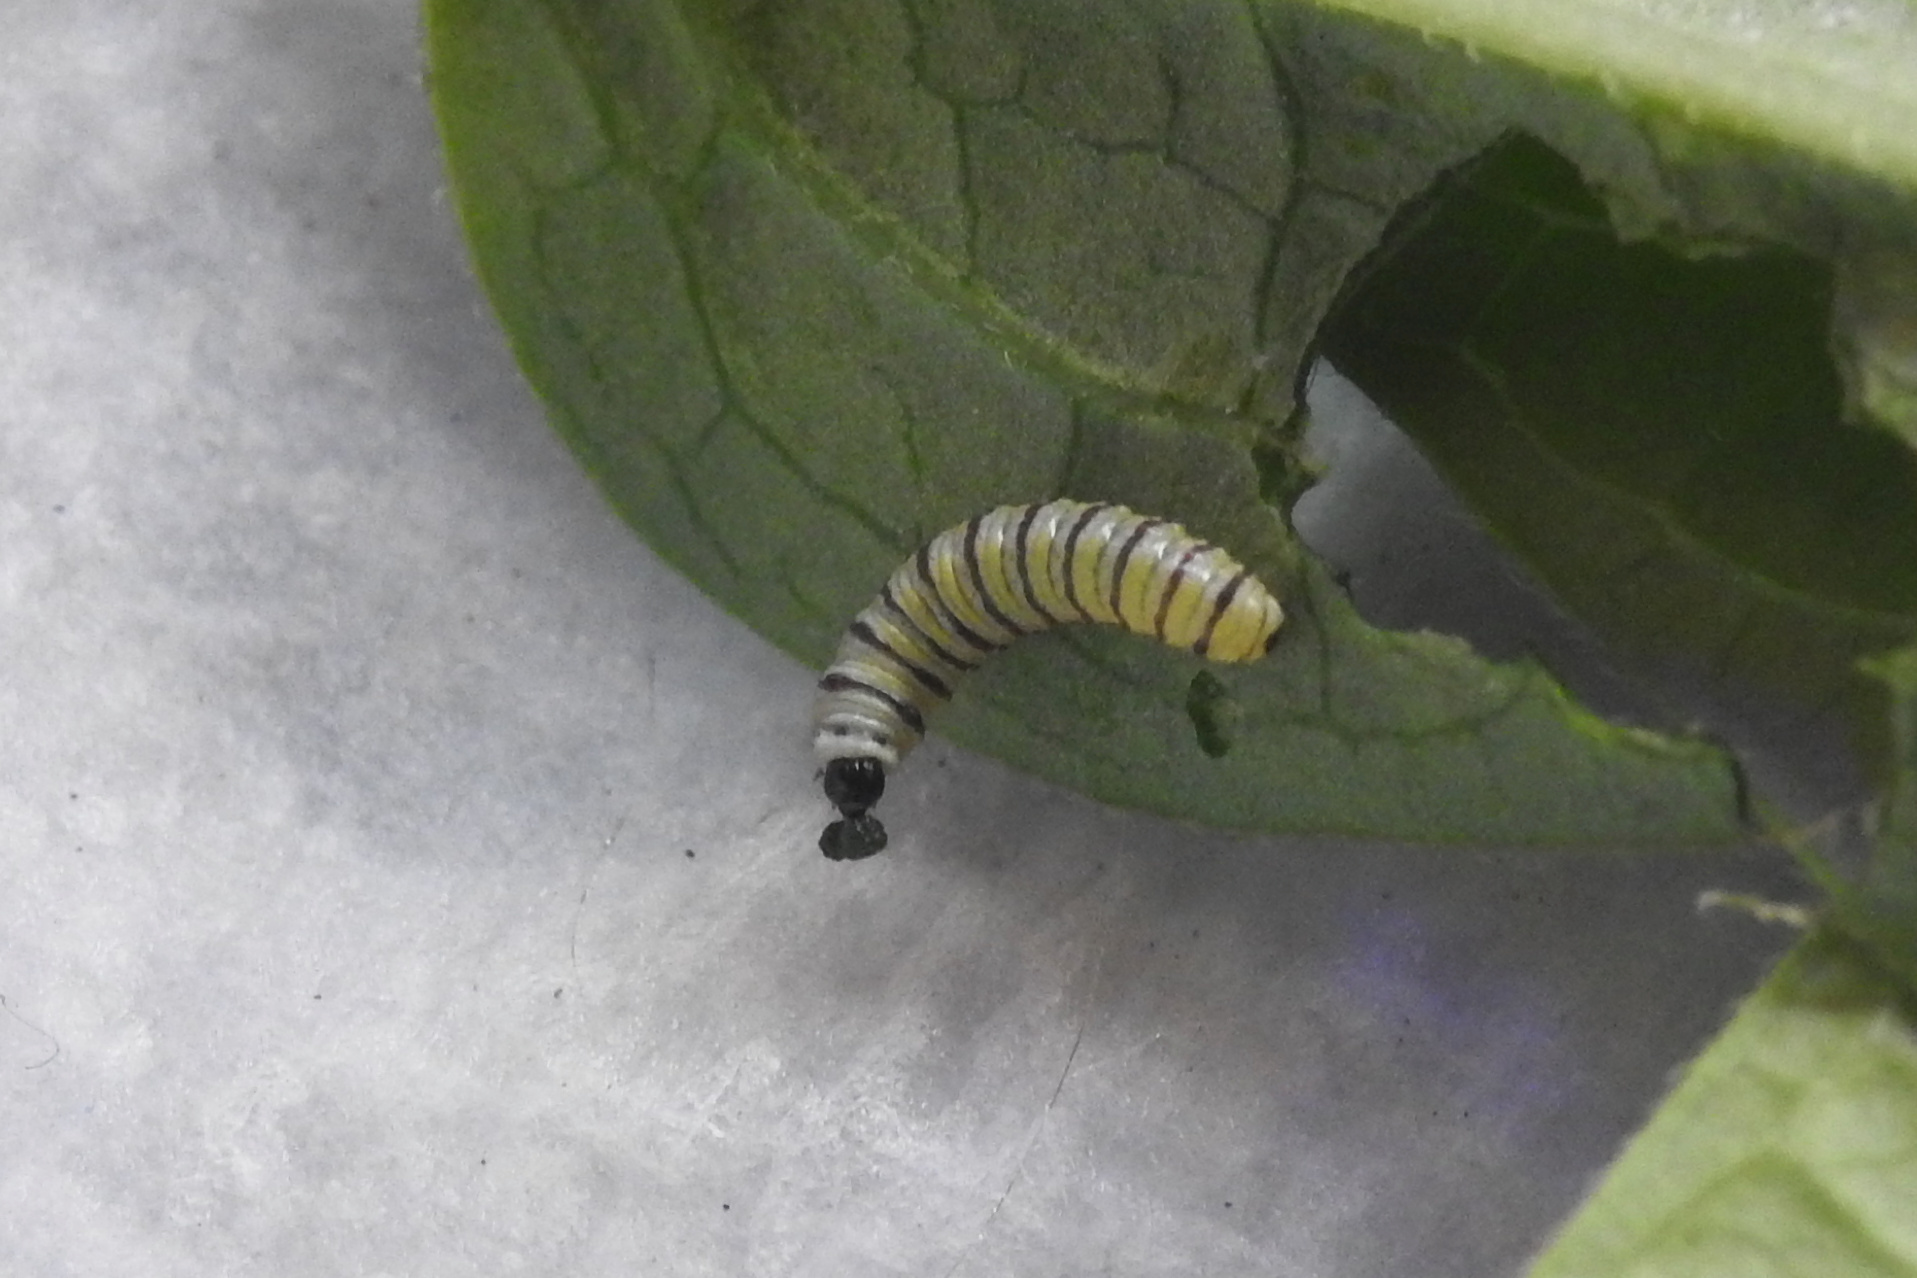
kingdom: Animalia
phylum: Arthropoda
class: Insecta
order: Lepidoptera
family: Nymphalidae
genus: Danaus
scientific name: Danaus plexippus
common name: Monarch
